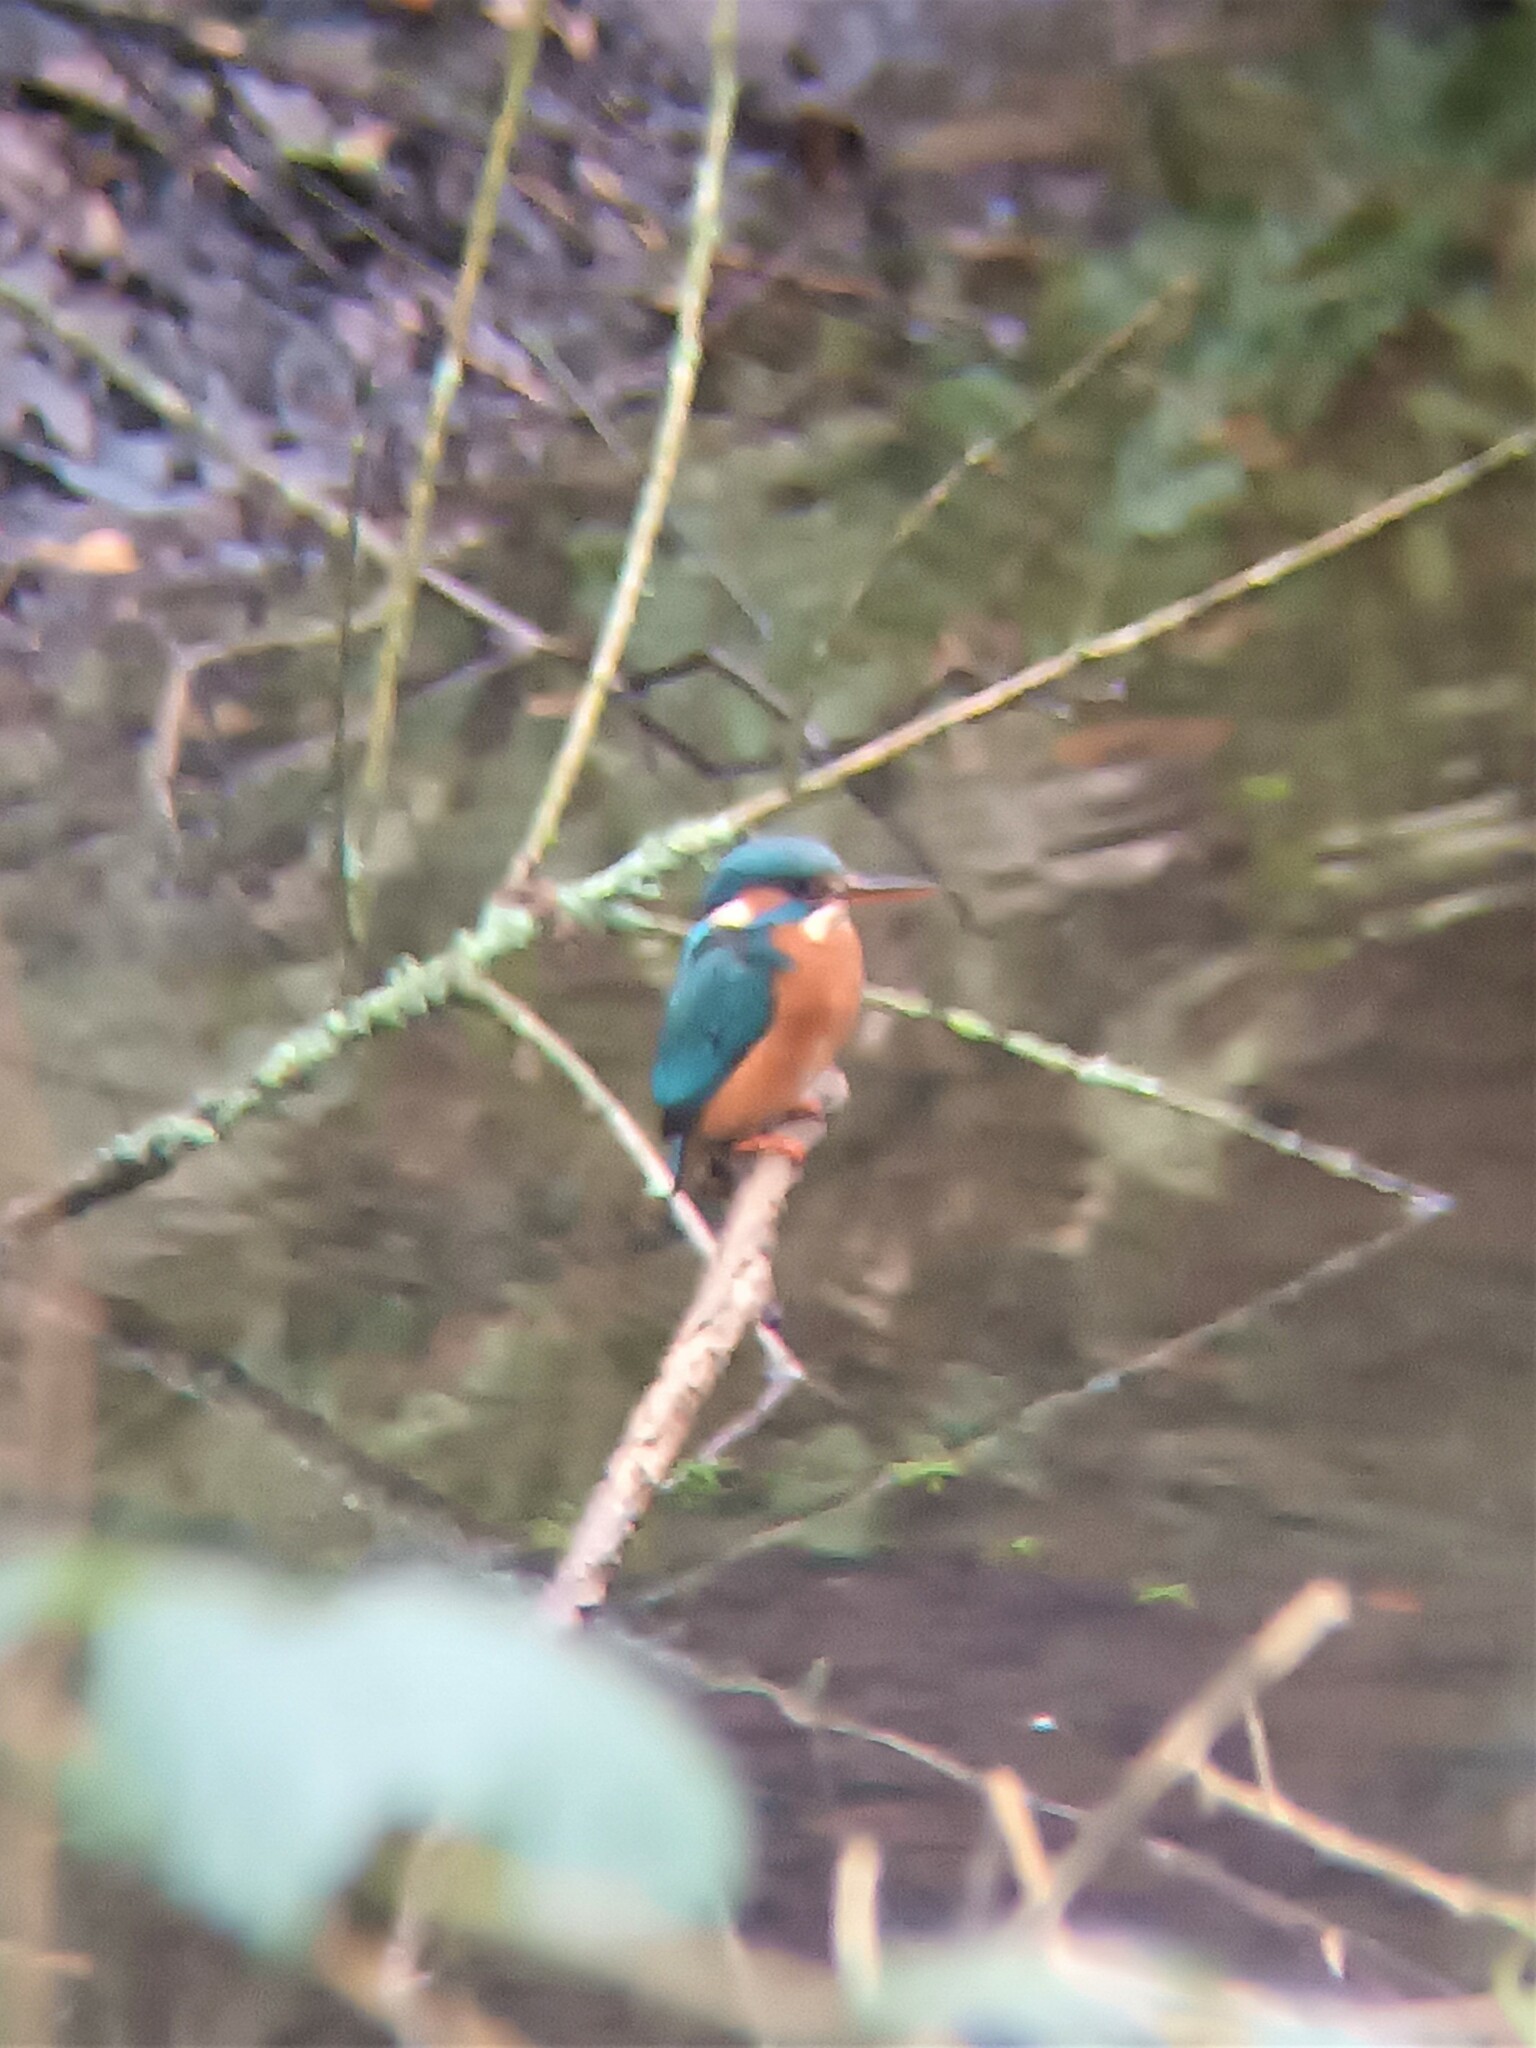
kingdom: Animalia
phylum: Chordata
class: Aves
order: Coraciiformes
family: Alcedinidae
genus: Alcedo
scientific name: Alcedo atthis
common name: Common kingfisher
